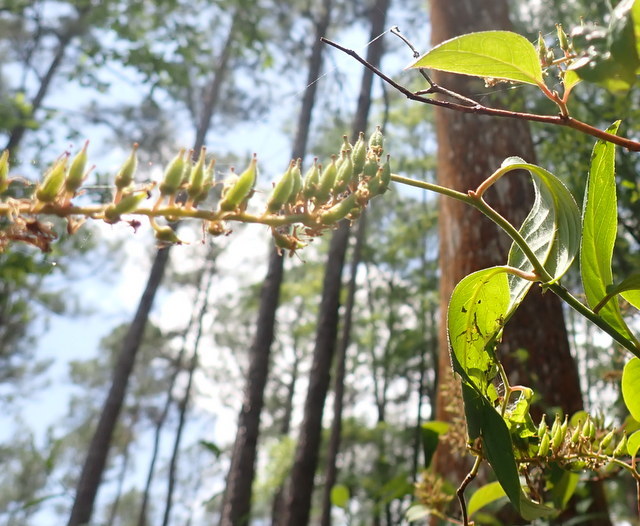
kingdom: Plantae
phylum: Tracheophyta
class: Magnoliopsida
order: Saxifragales
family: Iteaceae
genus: Itea
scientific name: Itea virginica
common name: Sweetspire
